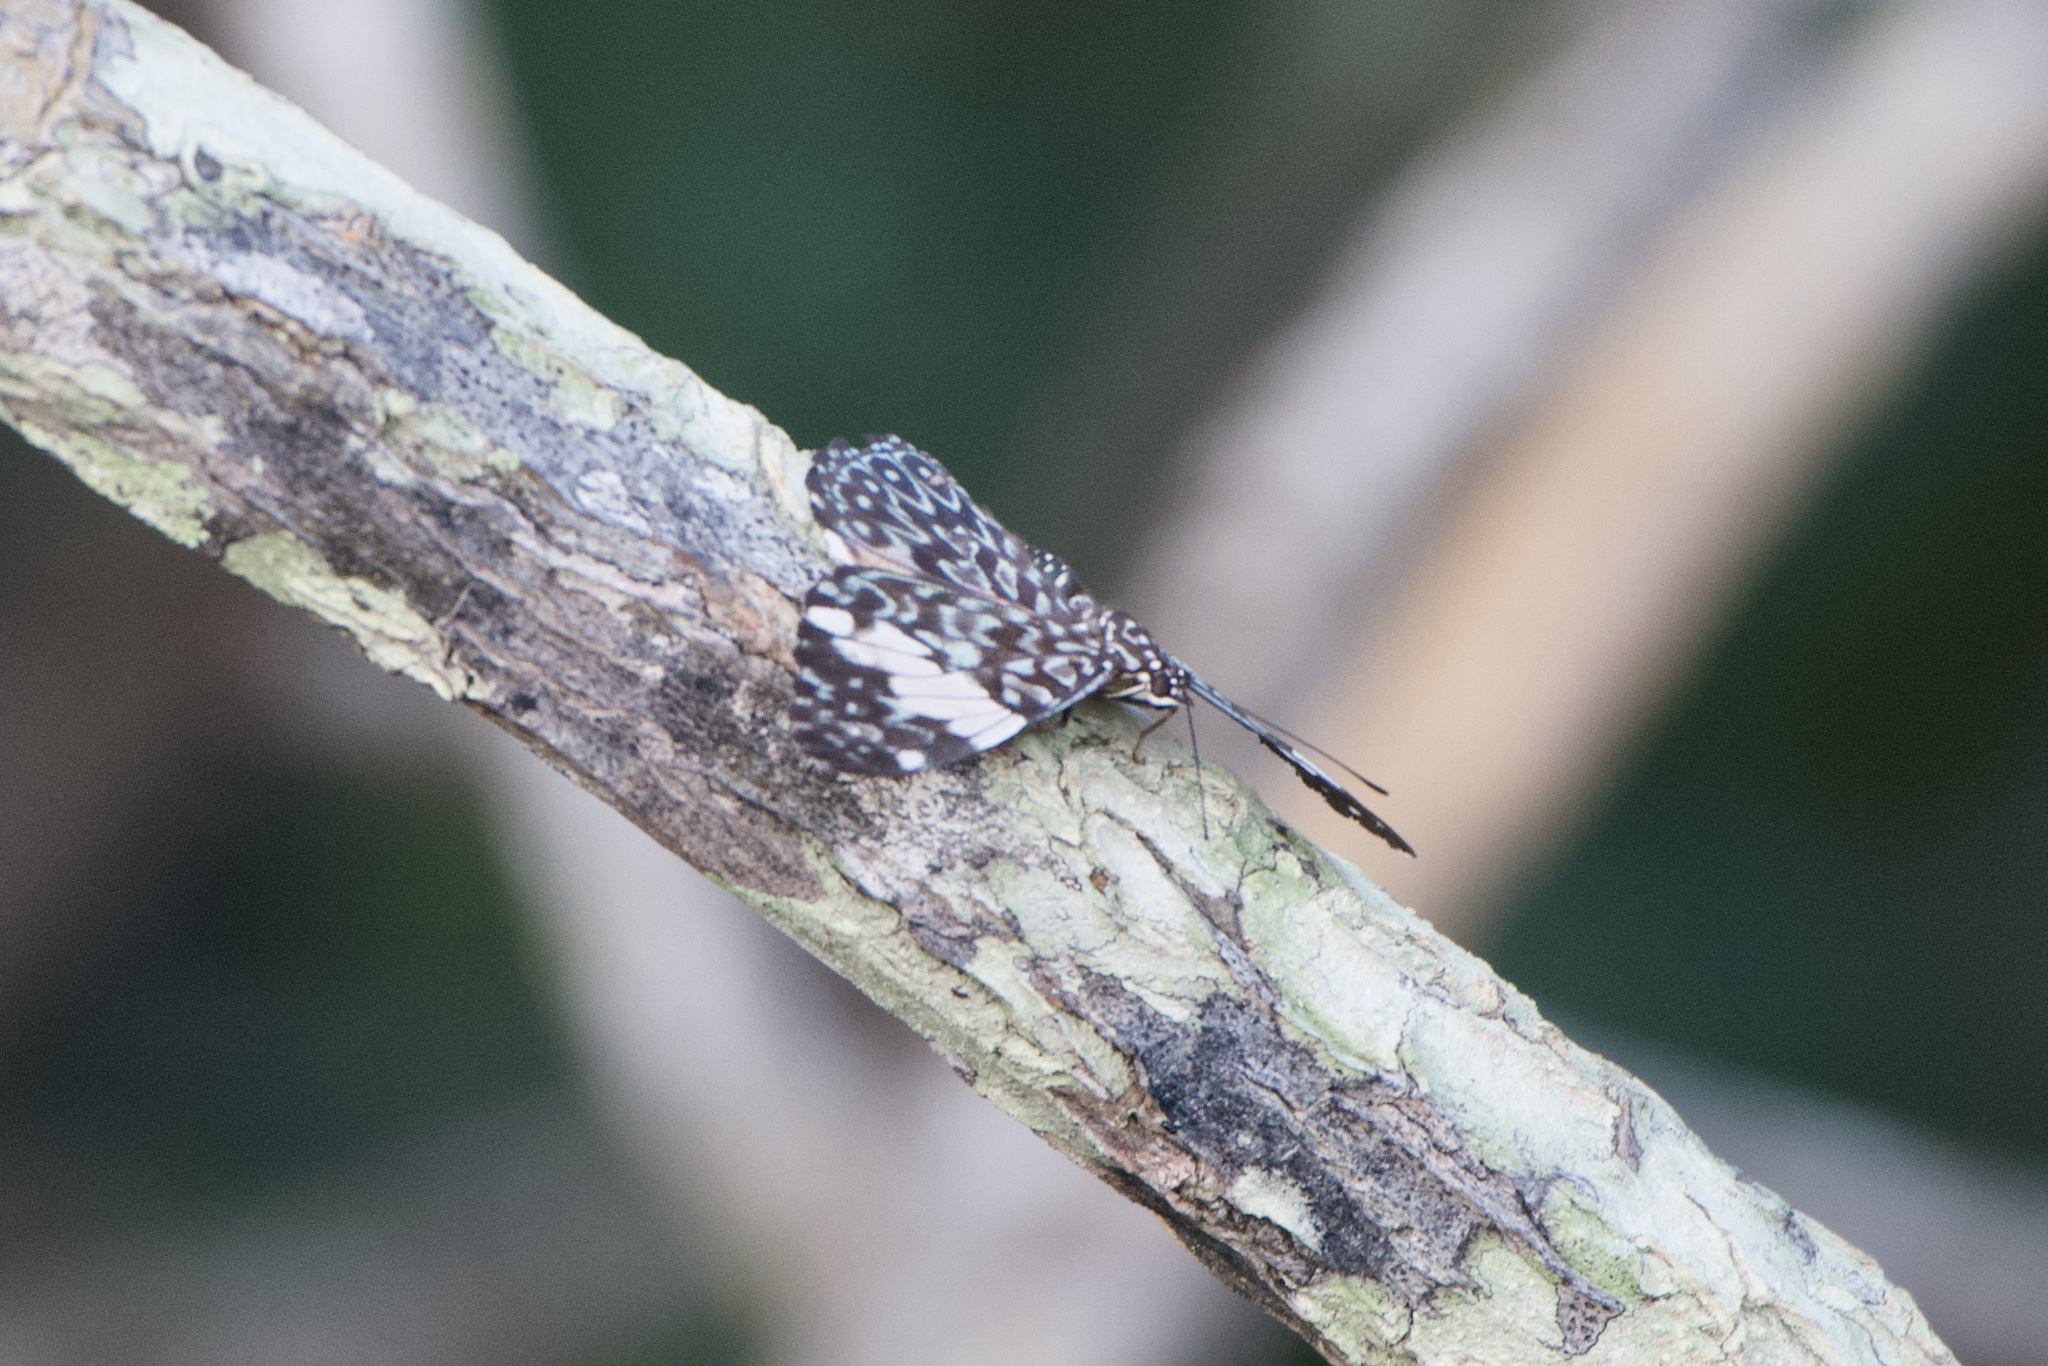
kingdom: Animalia
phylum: Arthropoda
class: Insecta
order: Lepidoptera
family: Nymphalidae
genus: Hamadryas
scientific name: Hamadryas amphinome
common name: Red cracker
